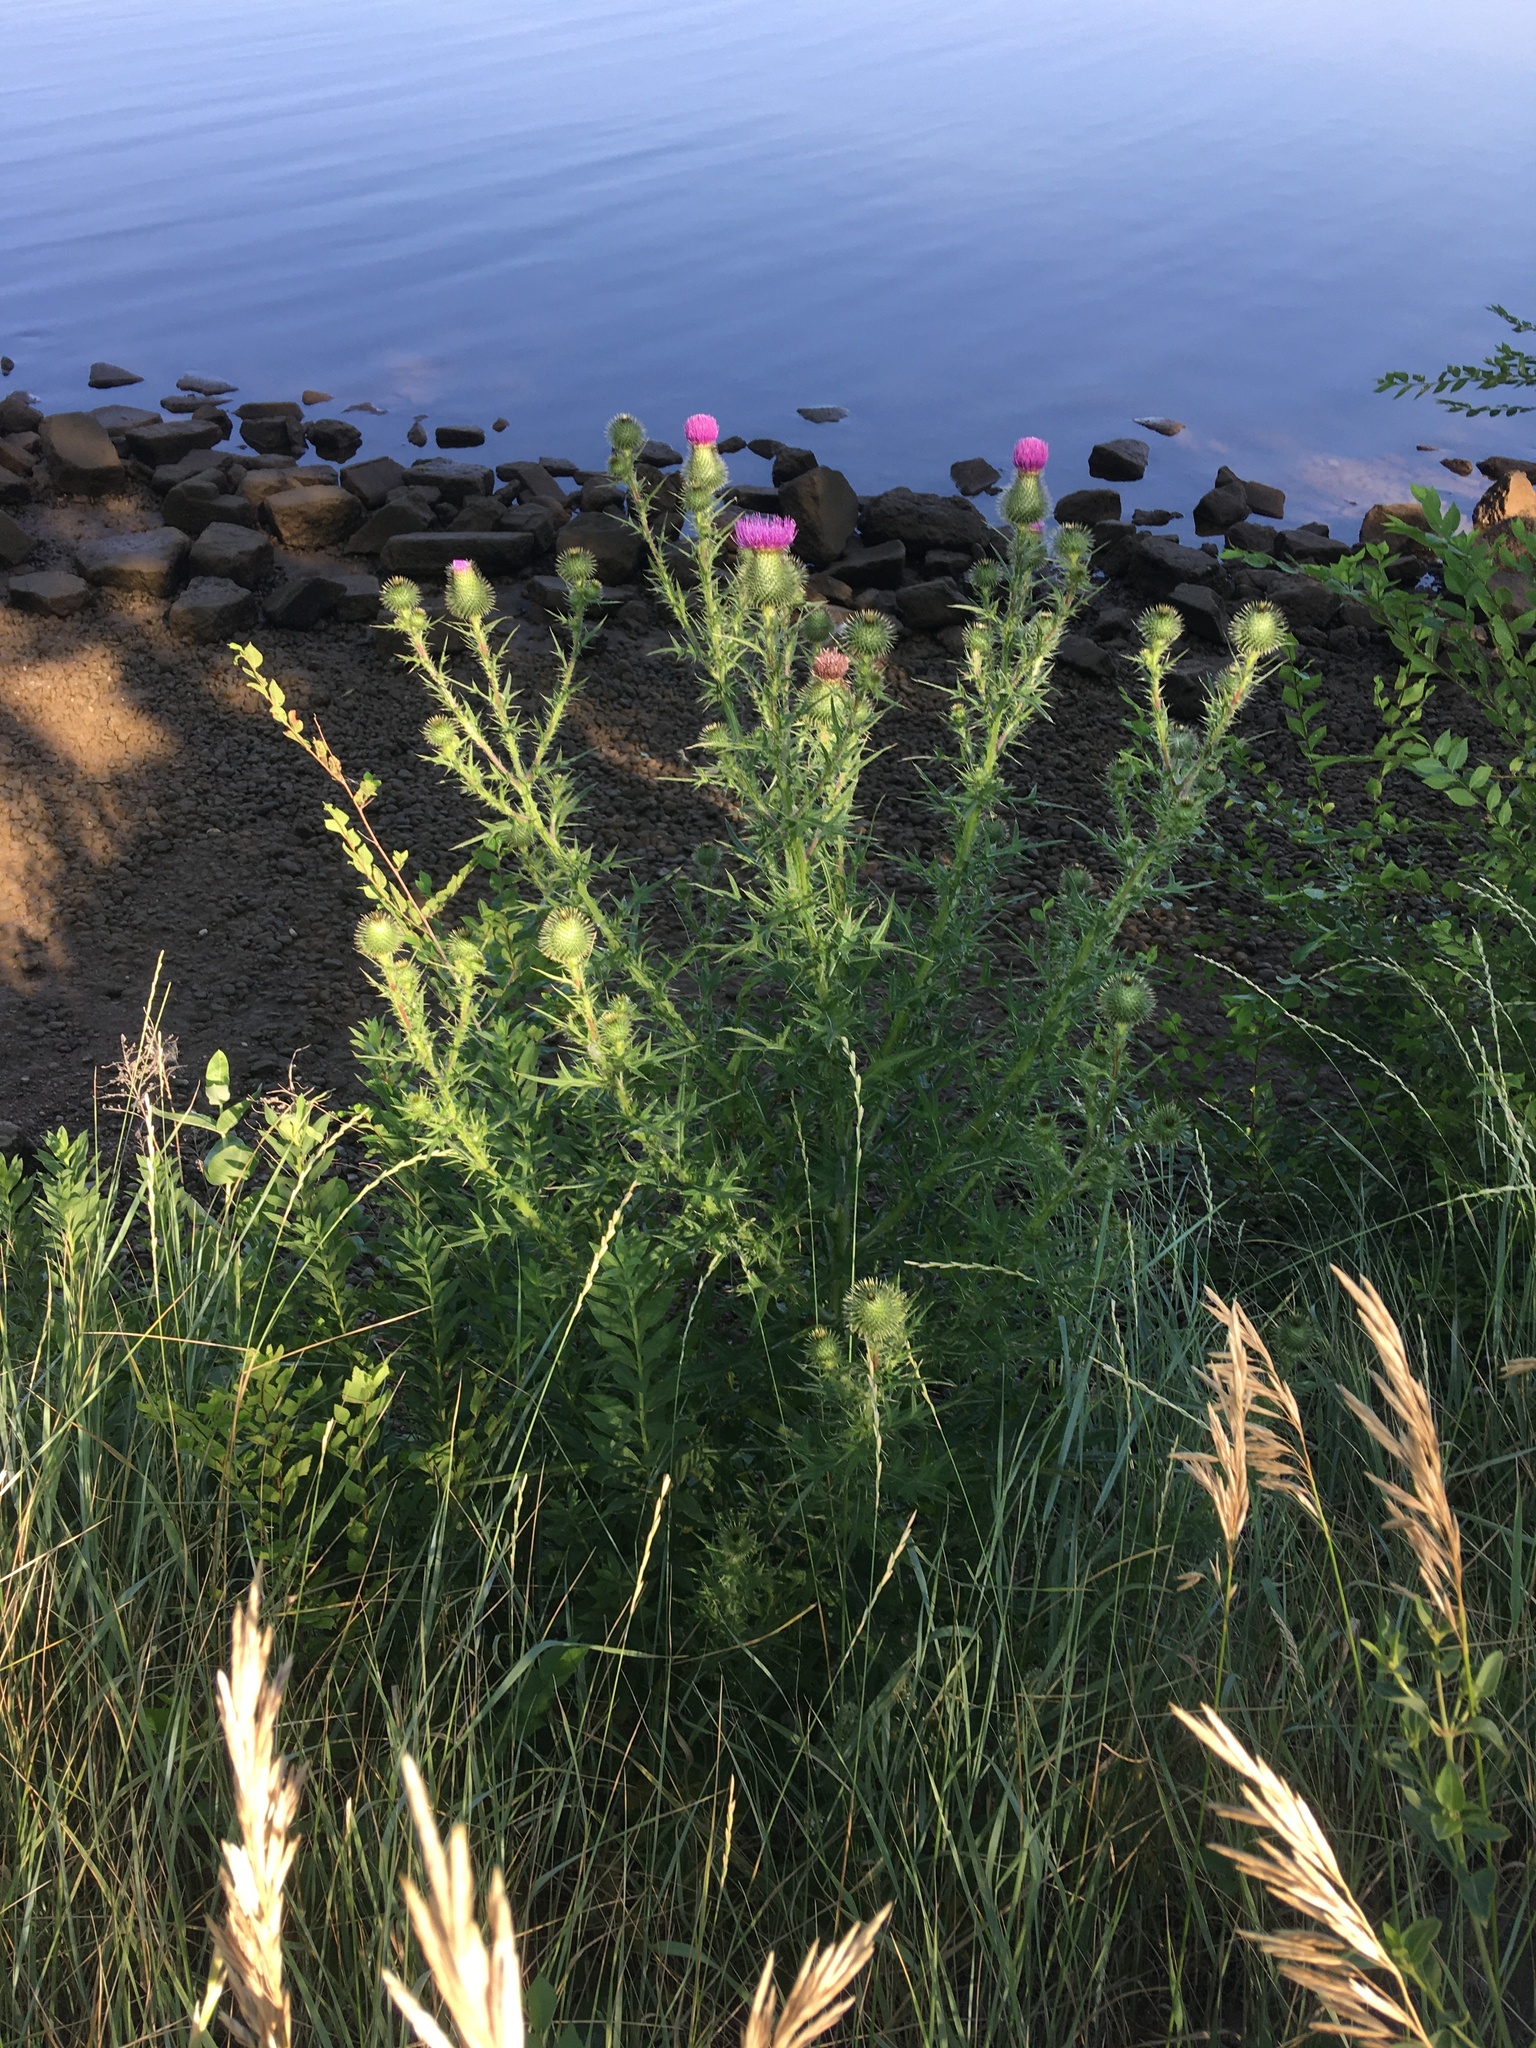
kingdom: Plantae
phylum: Tracheophyta
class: Magnoliopsida
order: Asterales
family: Asteraceae
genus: Carduus
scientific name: Carduus nutans
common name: Musk thistle
